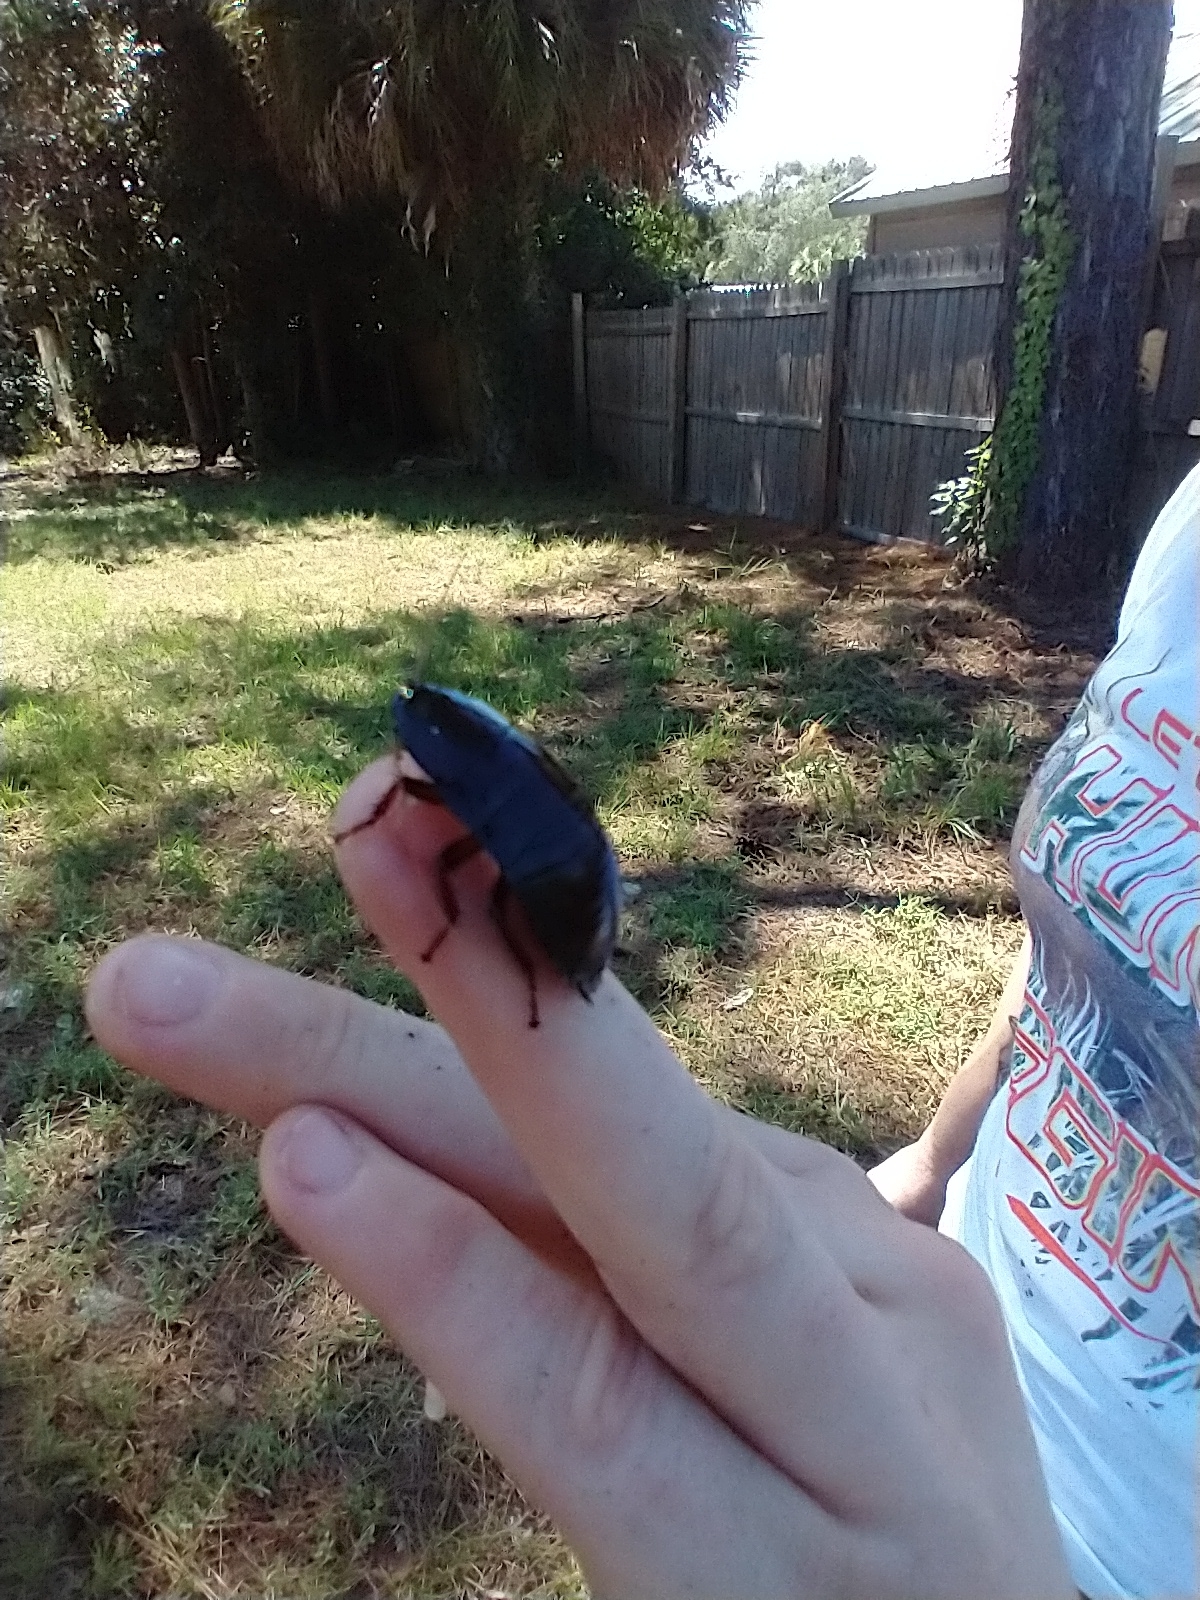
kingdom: Animalia
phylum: Arthropoda
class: Insecta
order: Blattodea
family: Blattidae
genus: Eurycotis
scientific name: Eurycotis floridana
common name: Florida cockroach
